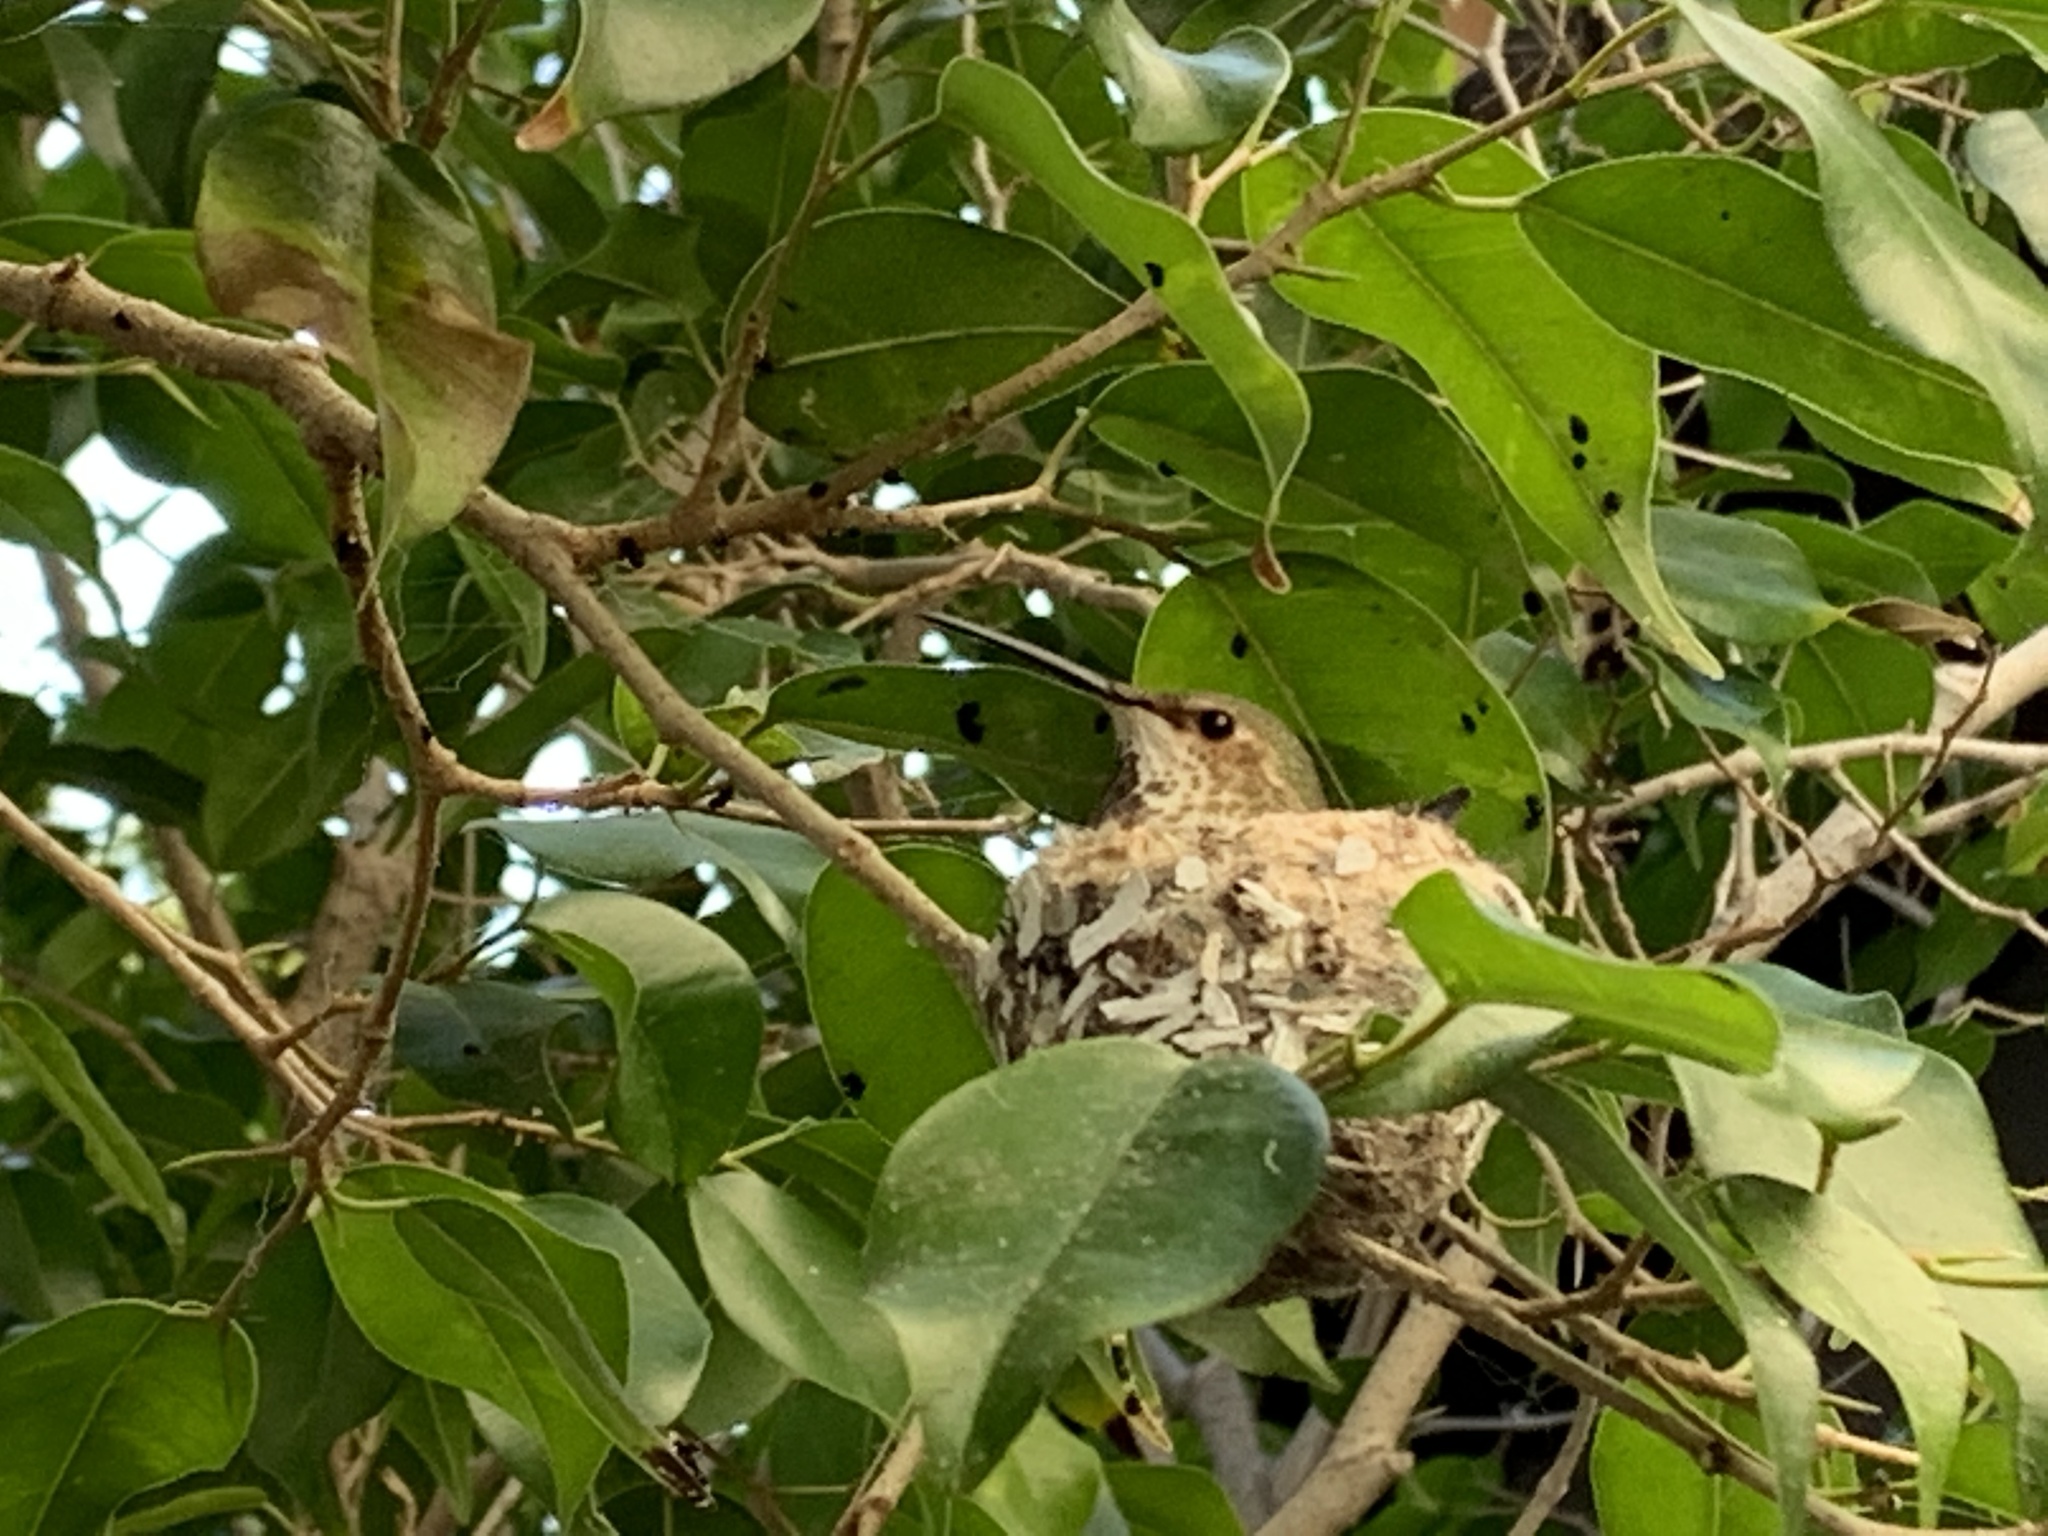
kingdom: Animalia
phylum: Chordata
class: Aves
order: Apodiformes
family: Trochilidae
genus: Selasphorus
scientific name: Selasphorus sasin
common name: Allen's hummingbird
